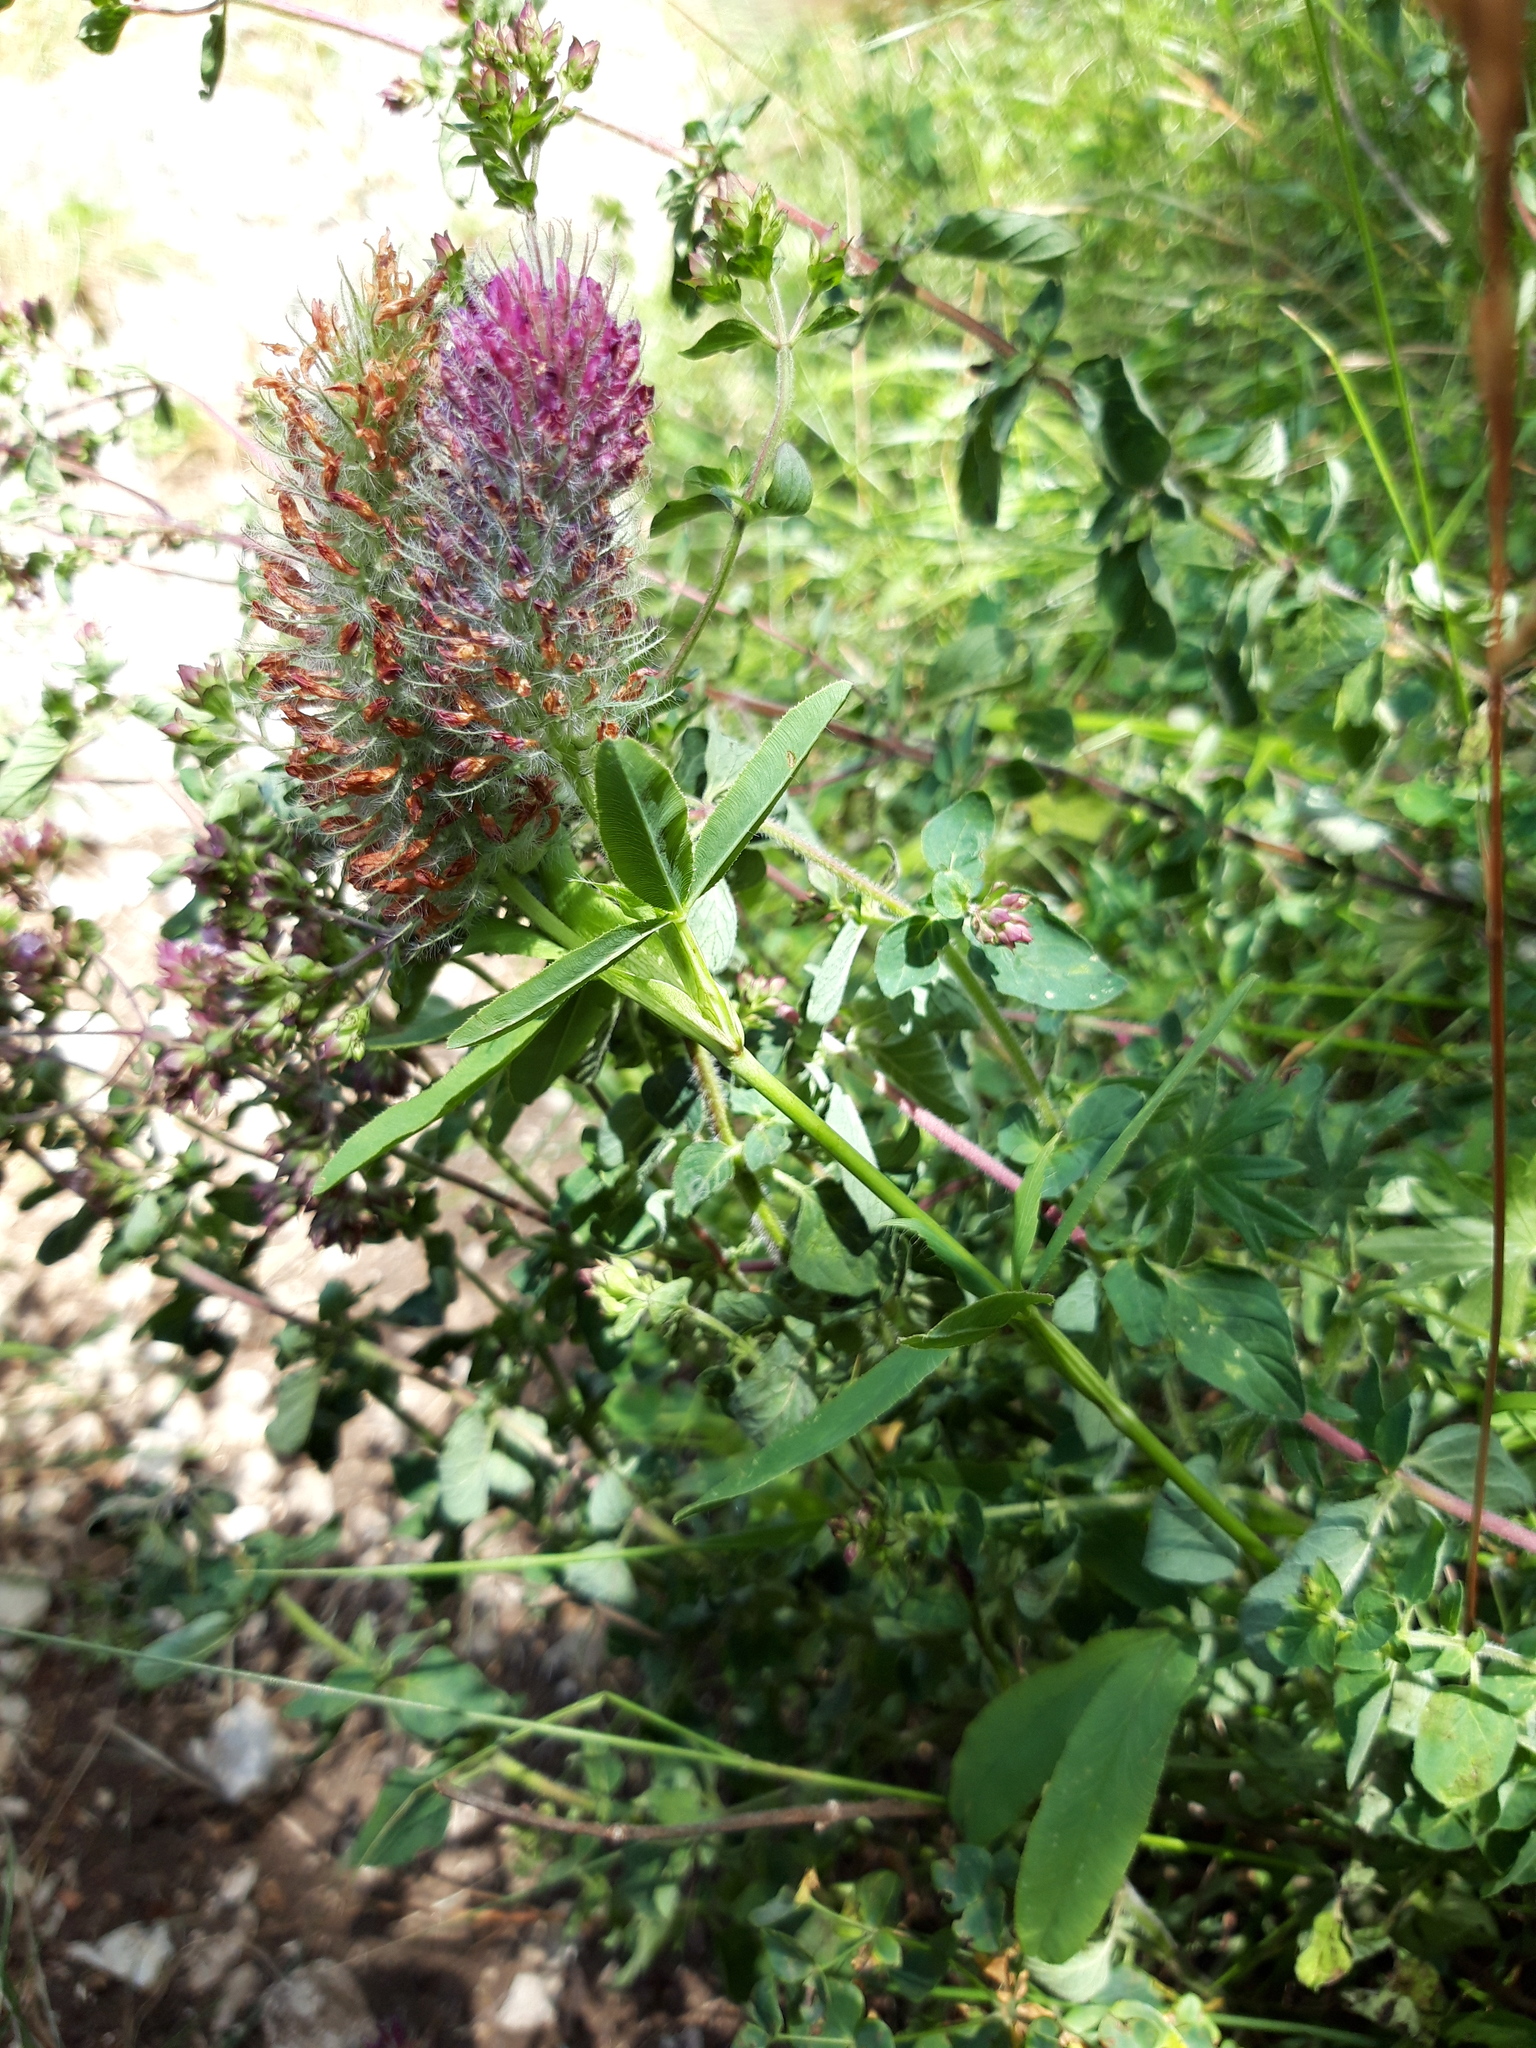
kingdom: Plantae
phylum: Tracheophyta
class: Magnoliopsida
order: Fabales
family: Fabaceae
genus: Trifolium
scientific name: Trifolium rubens
